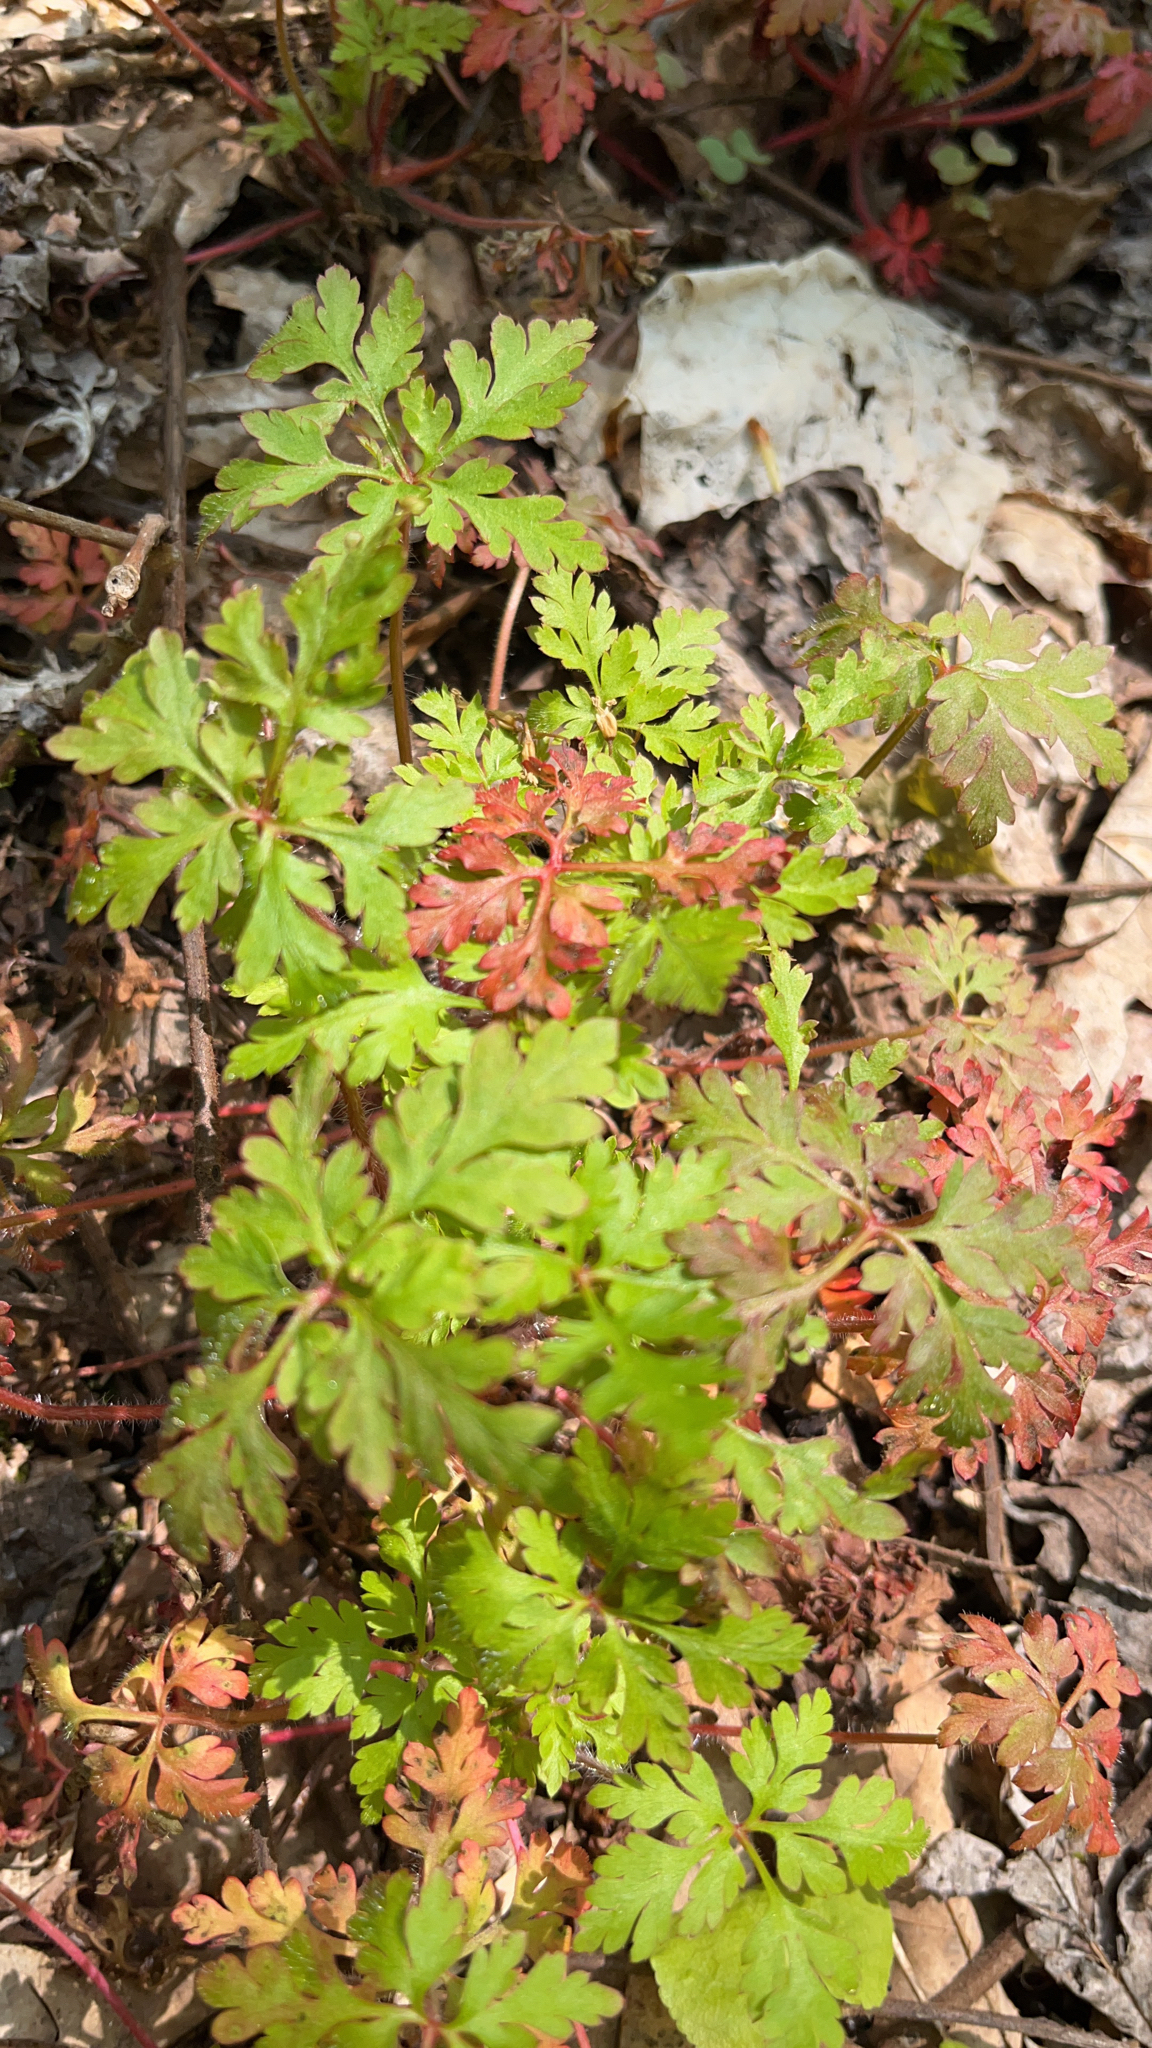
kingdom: Plantae
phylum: Tracheophyta
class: Magnoliopsida
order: Geraniales
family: Geraniaceae
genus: Geranium
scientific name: Geranium robertianum
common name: Herb-robert
